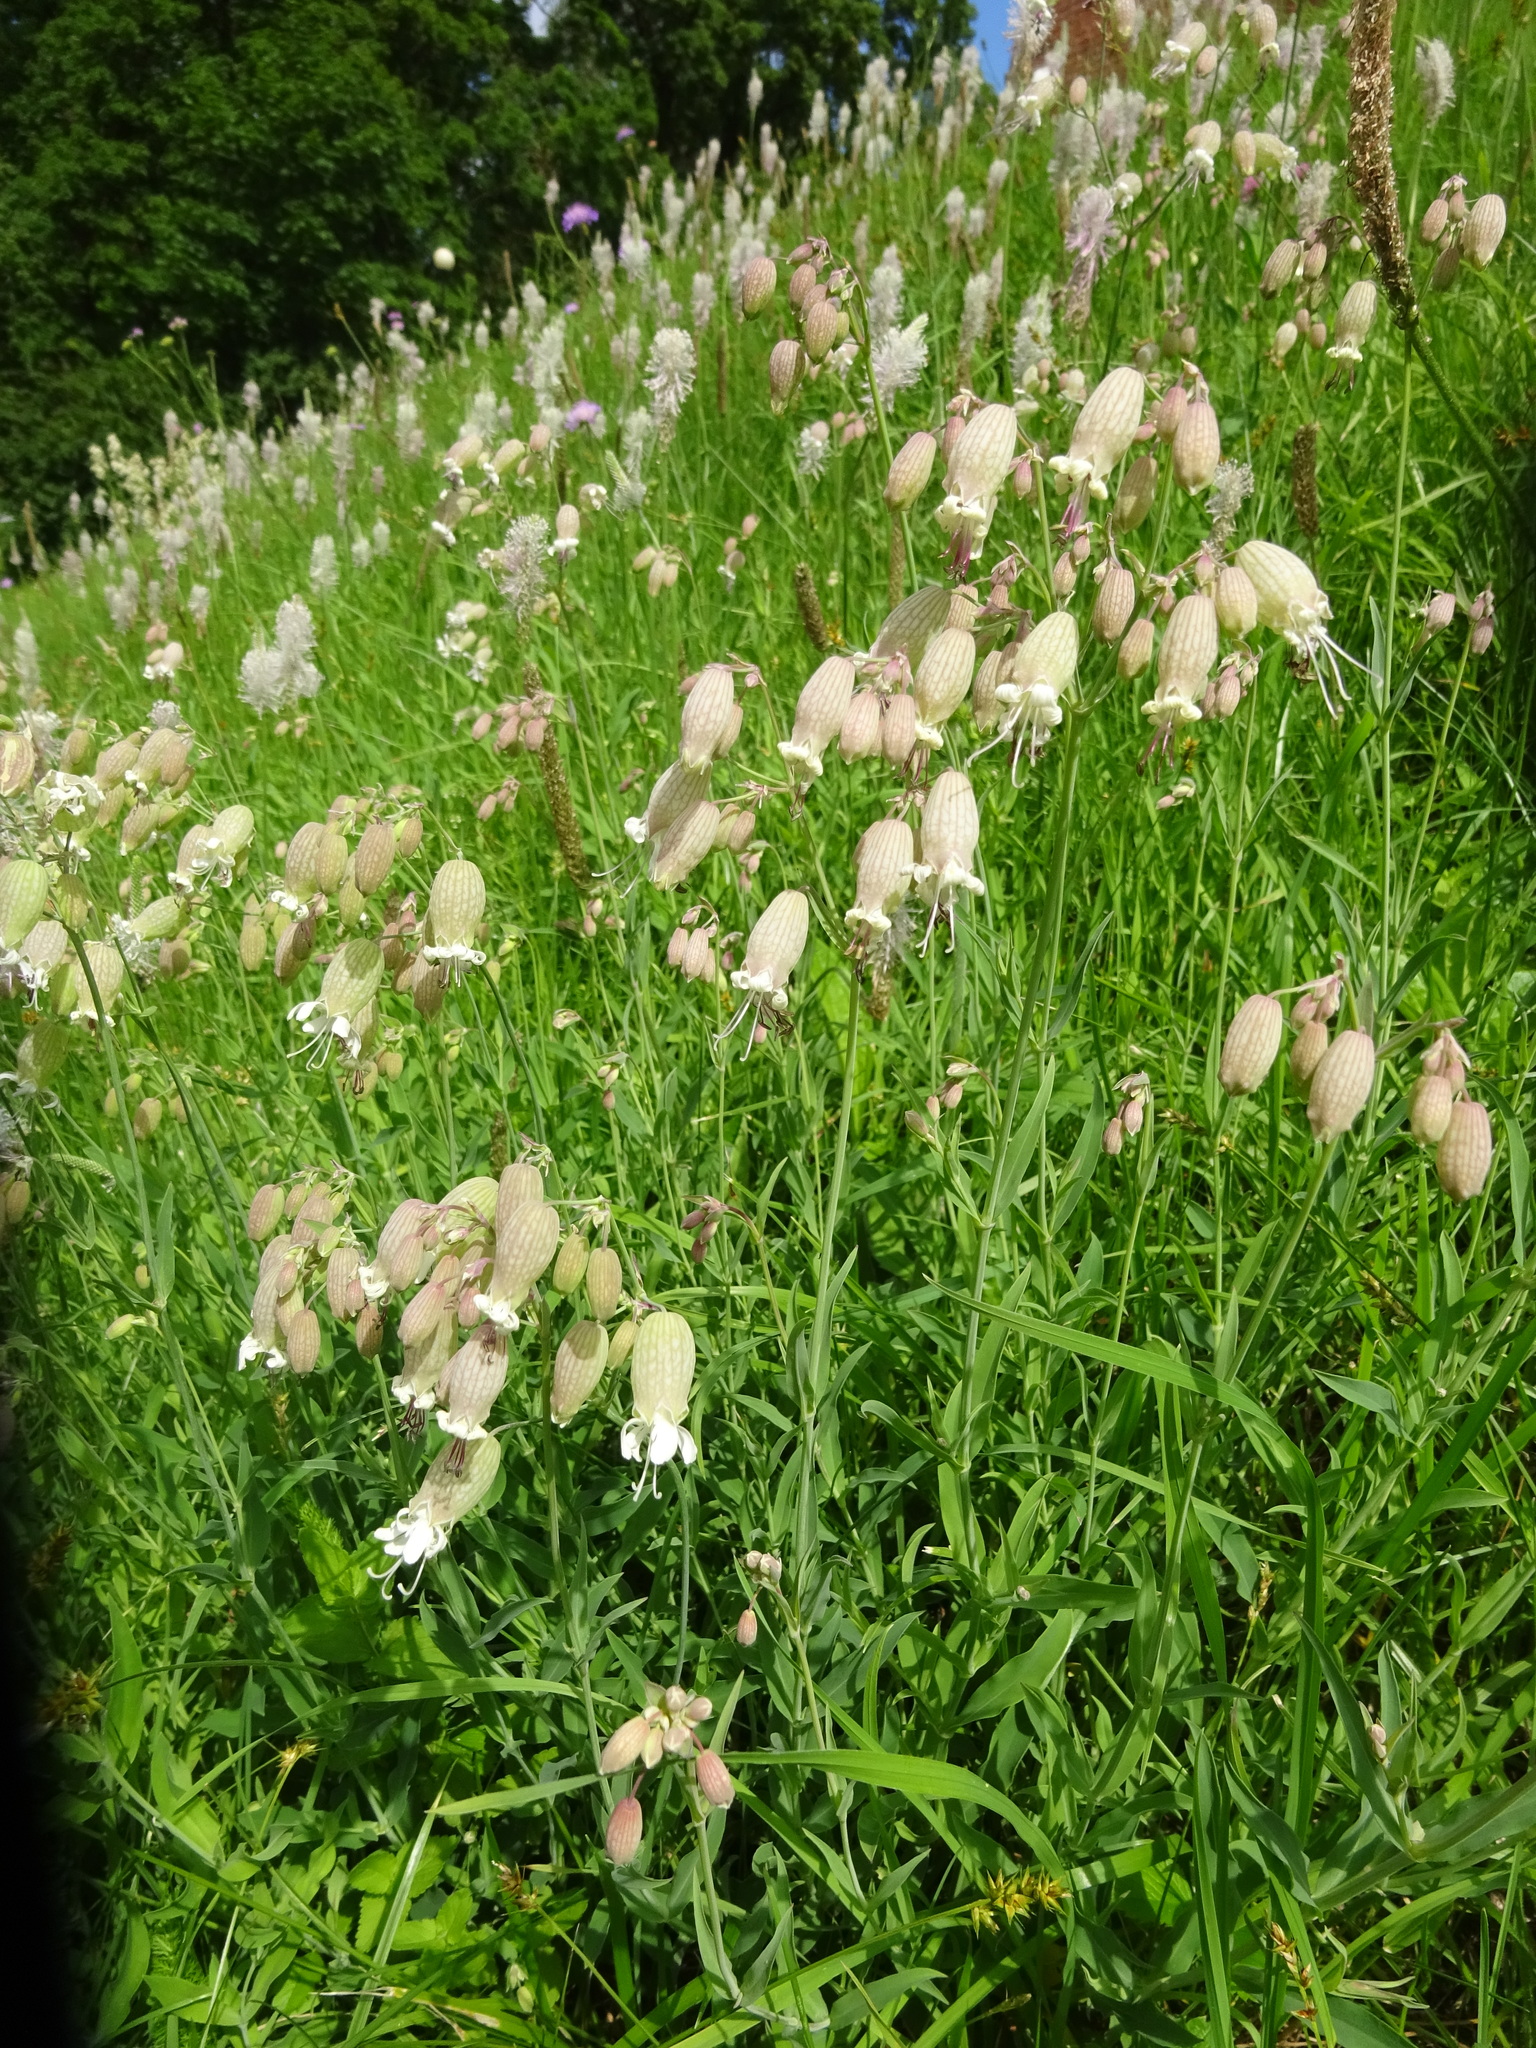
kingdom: Plantae
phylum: Tracheophyta
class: Magnoliopsida
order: Caryophyllales
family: Caryophyllaceae
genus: Silene
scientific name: Silene vulgaris
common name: Bladder campion
